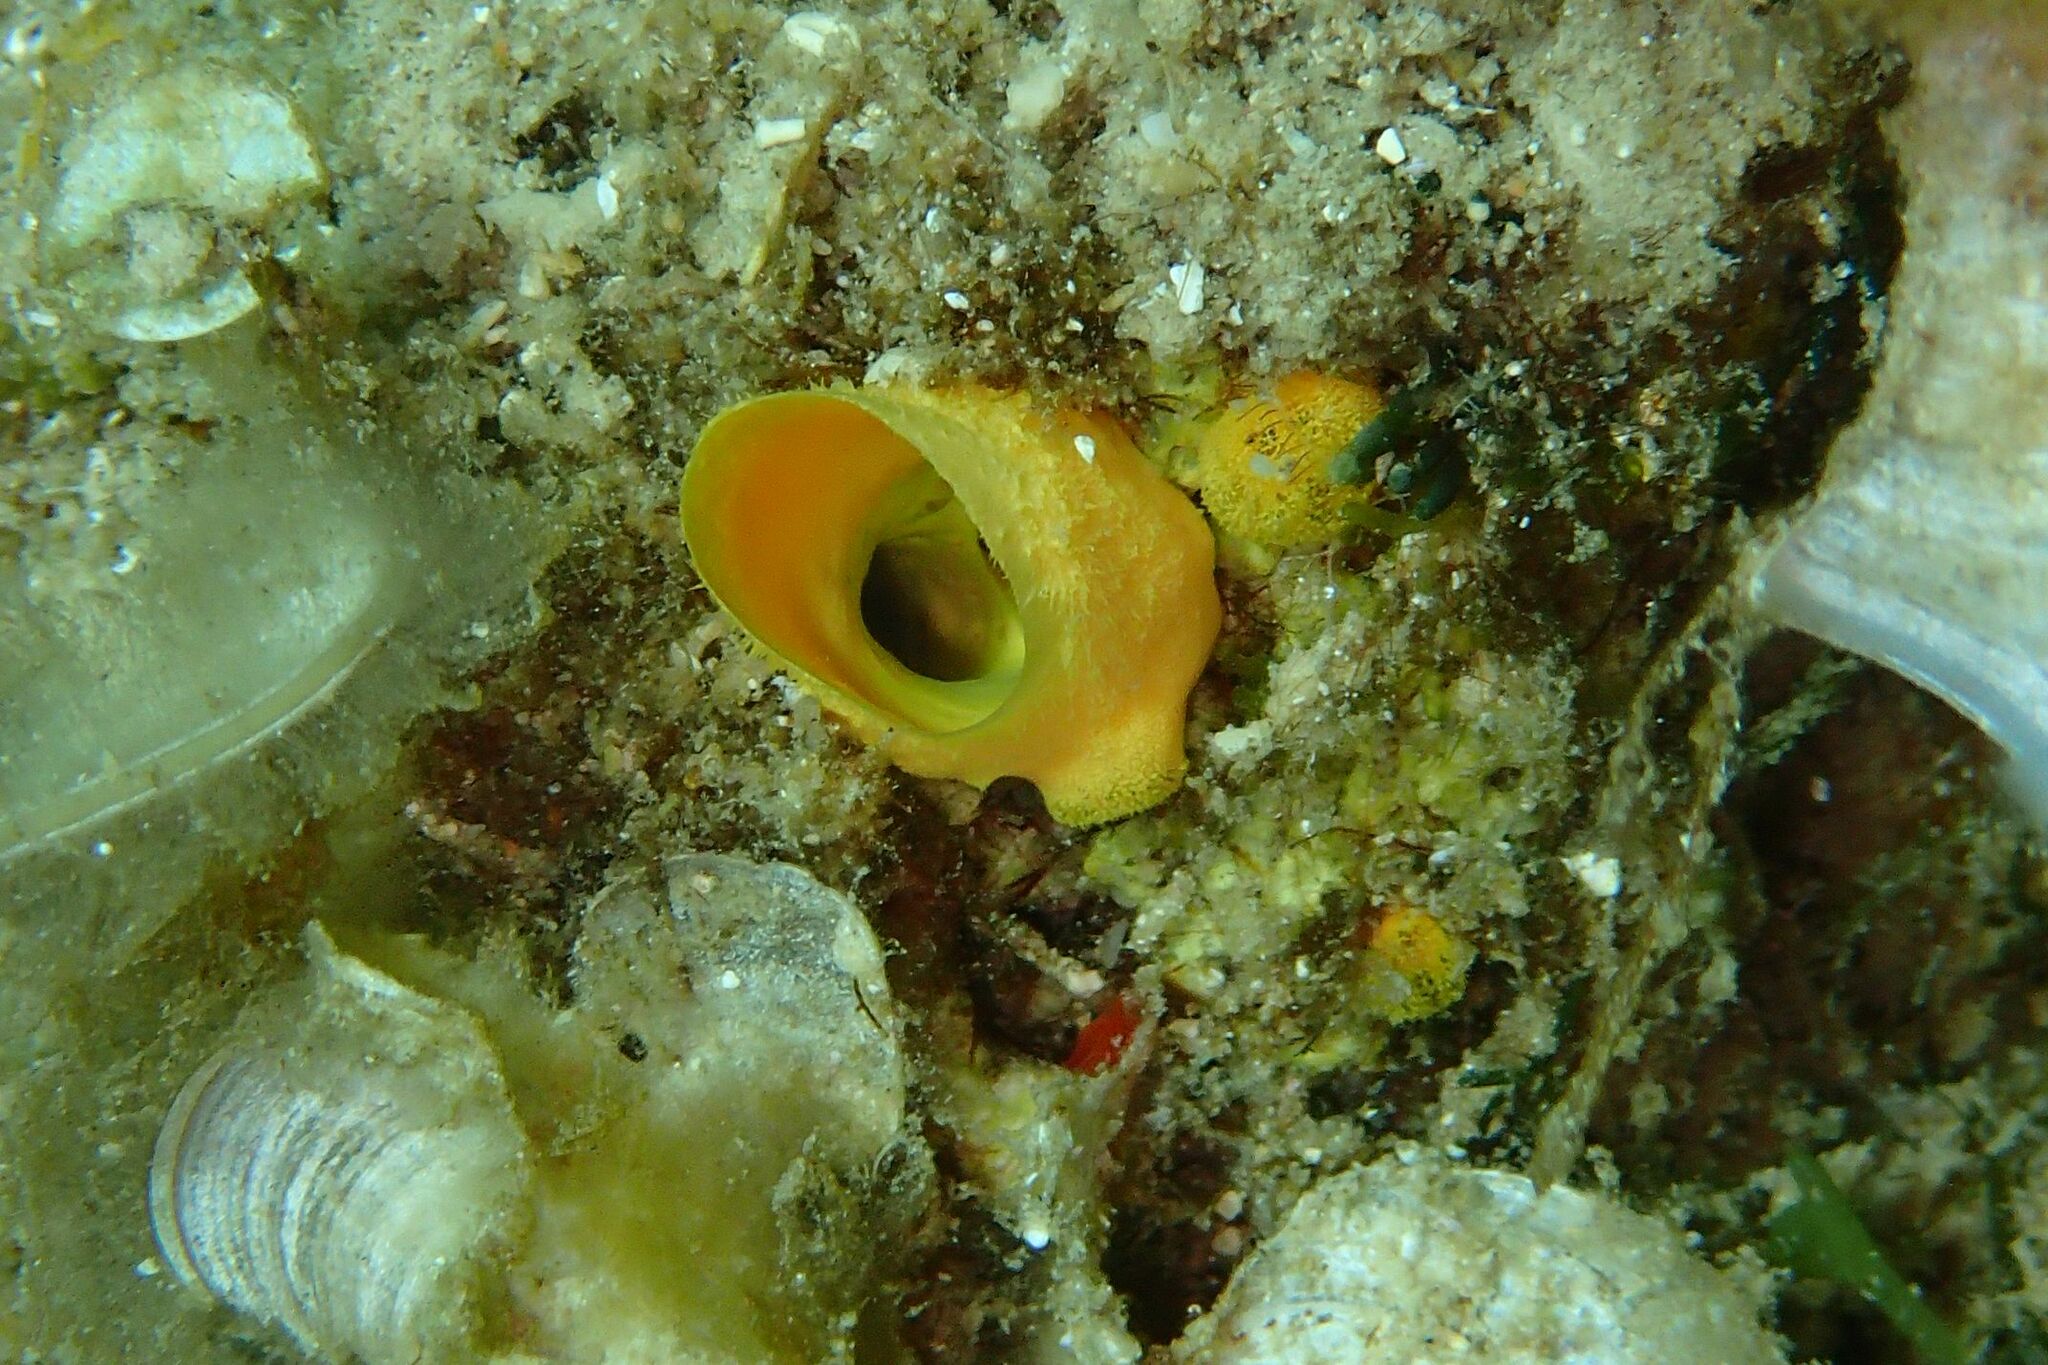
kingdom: Animalia
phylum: Porifera
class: Demospongiae
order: Clionaida
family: Clionaidae
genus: Cliona
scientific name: Cliona celata
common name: Boring sponge
